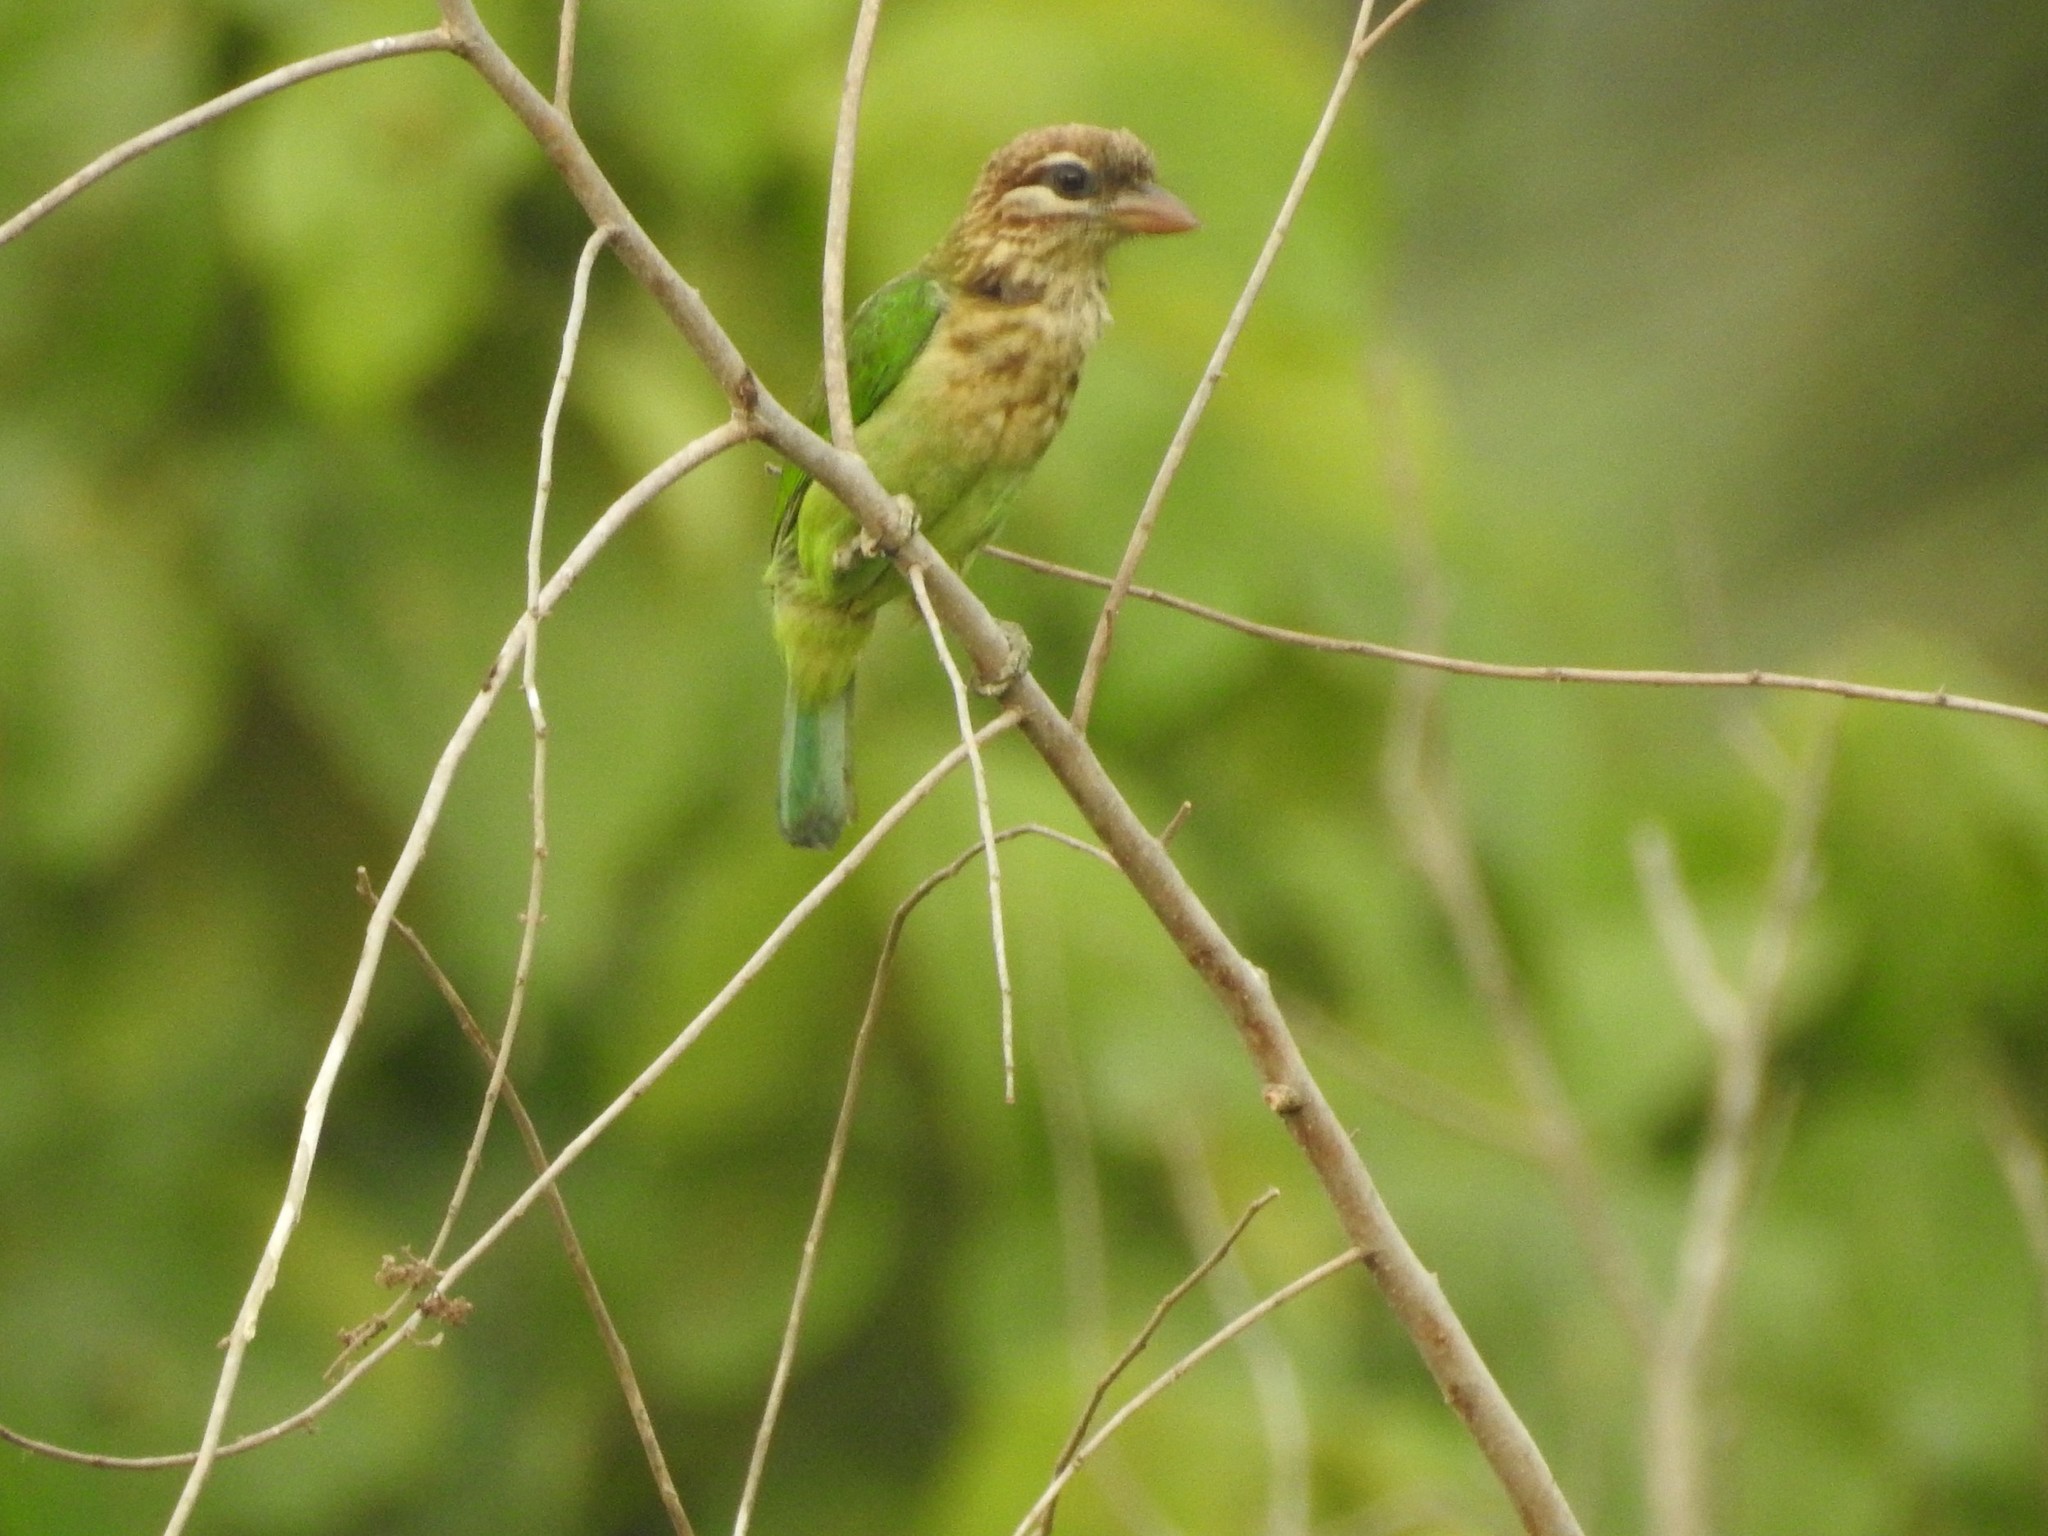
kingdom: Animalia
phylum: Chordata
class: Aves
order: Piciformes
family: Megalaimidae
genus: Psilopogon
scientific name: Psilopogon viridis
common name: White-cheeked barbet
